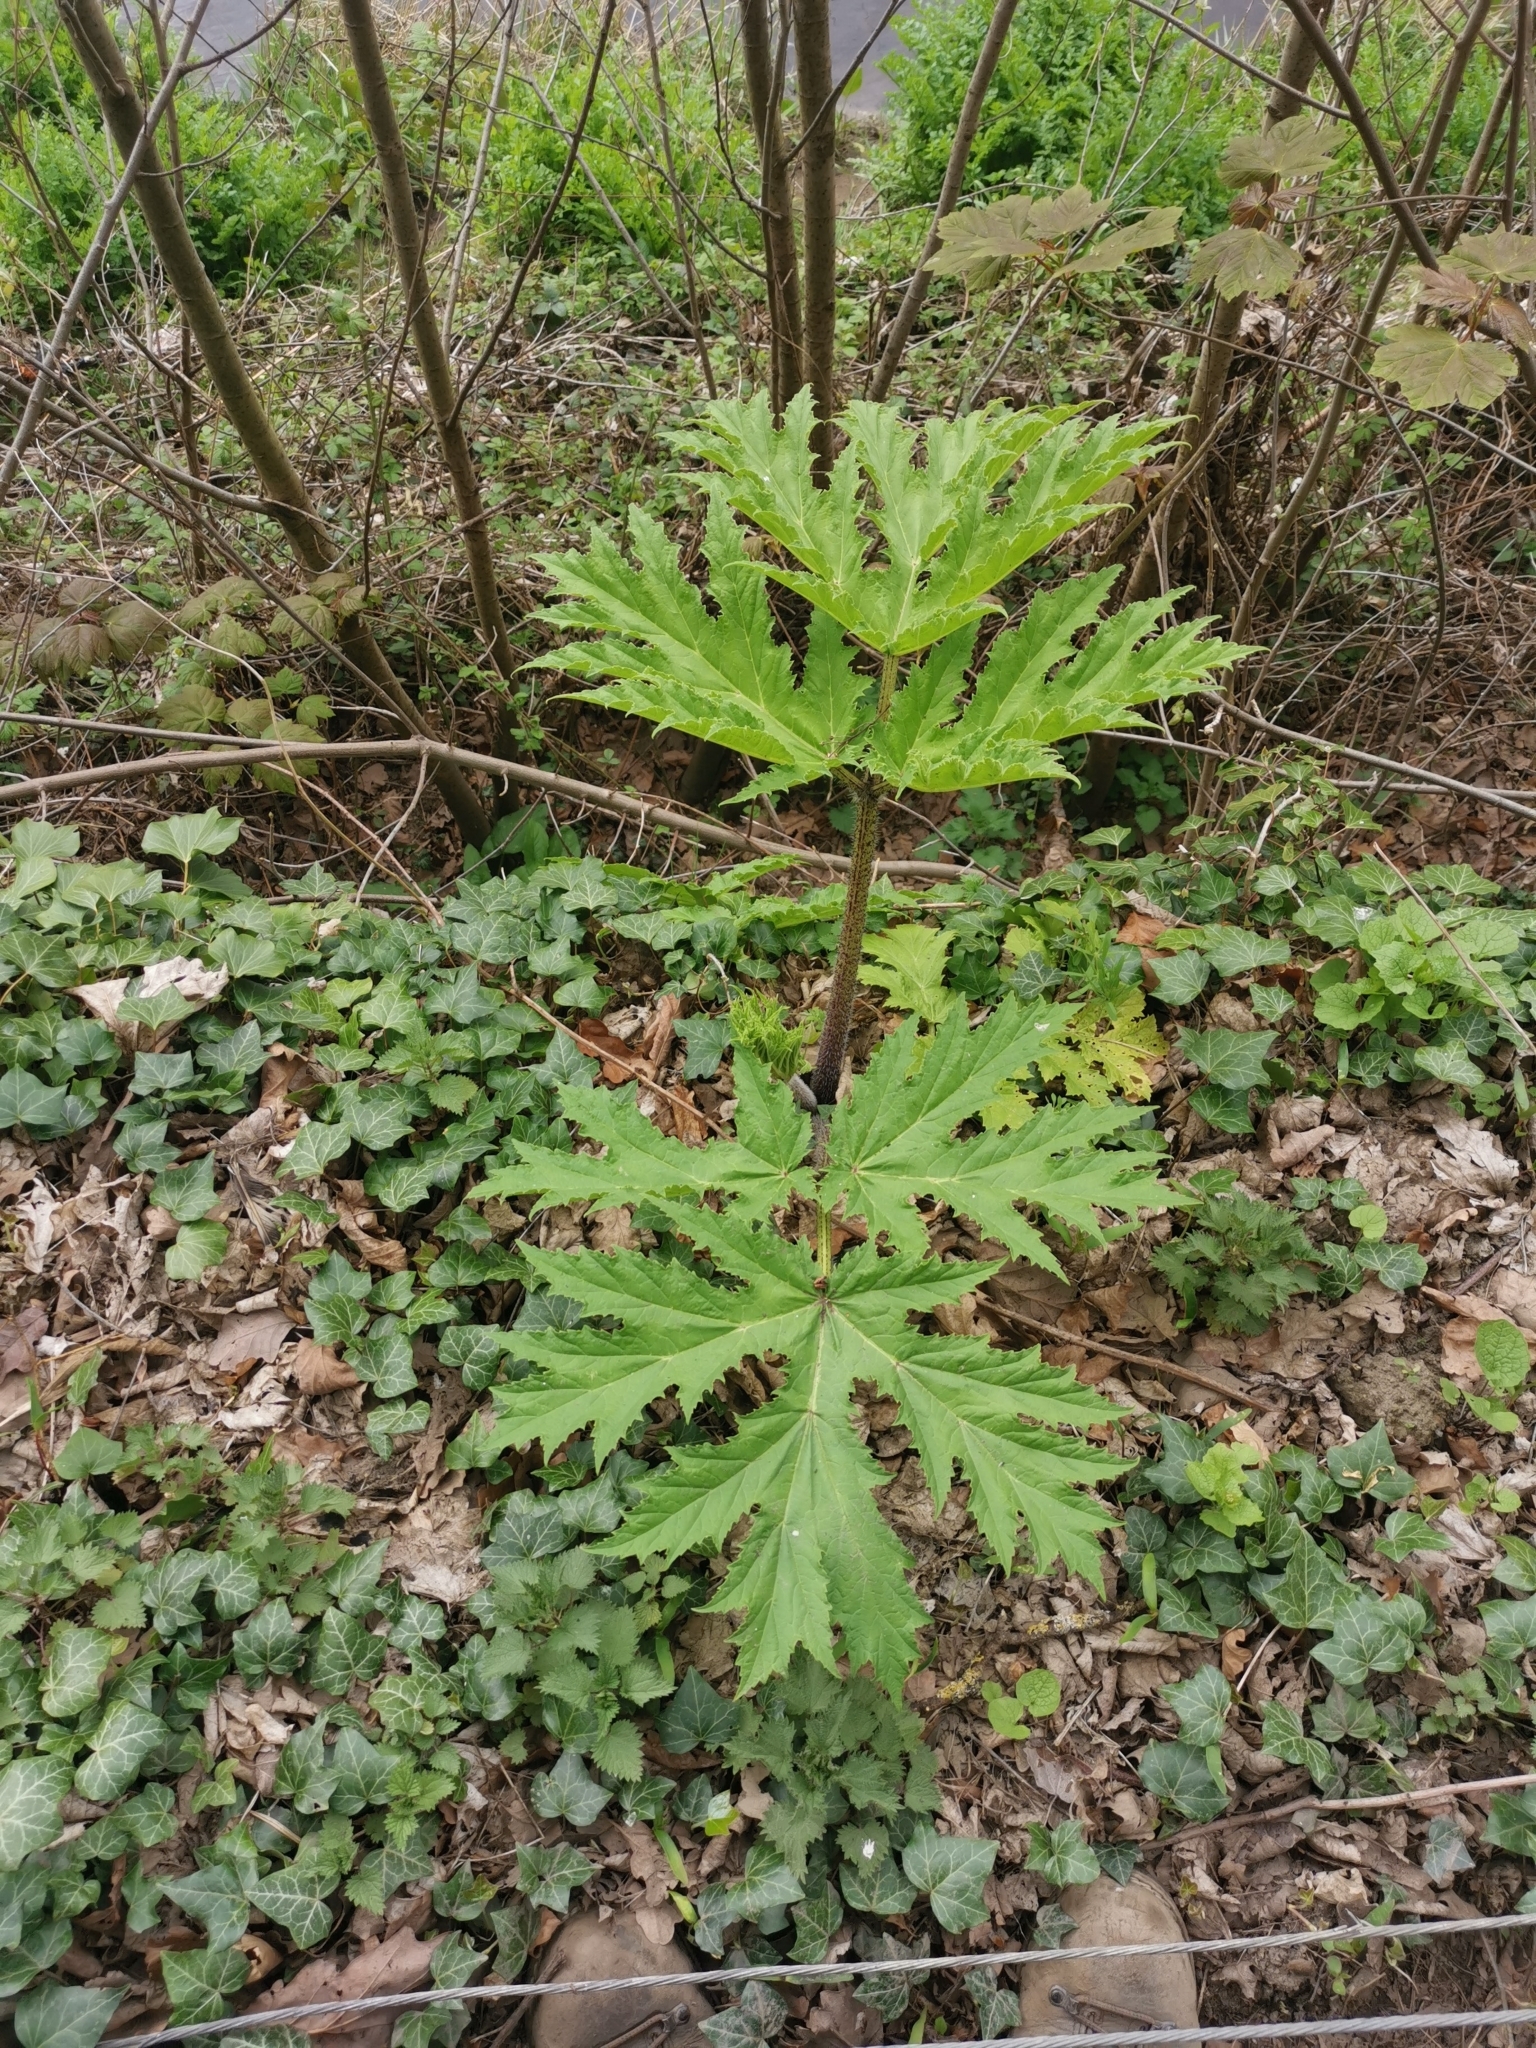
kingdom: Plantae
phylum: Tracheophyta
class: Magnoliopsida
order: Apiales
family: Apiaceae
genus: Heracleum
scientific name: Heracleum mantegazzianum
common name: Giant hogweed
